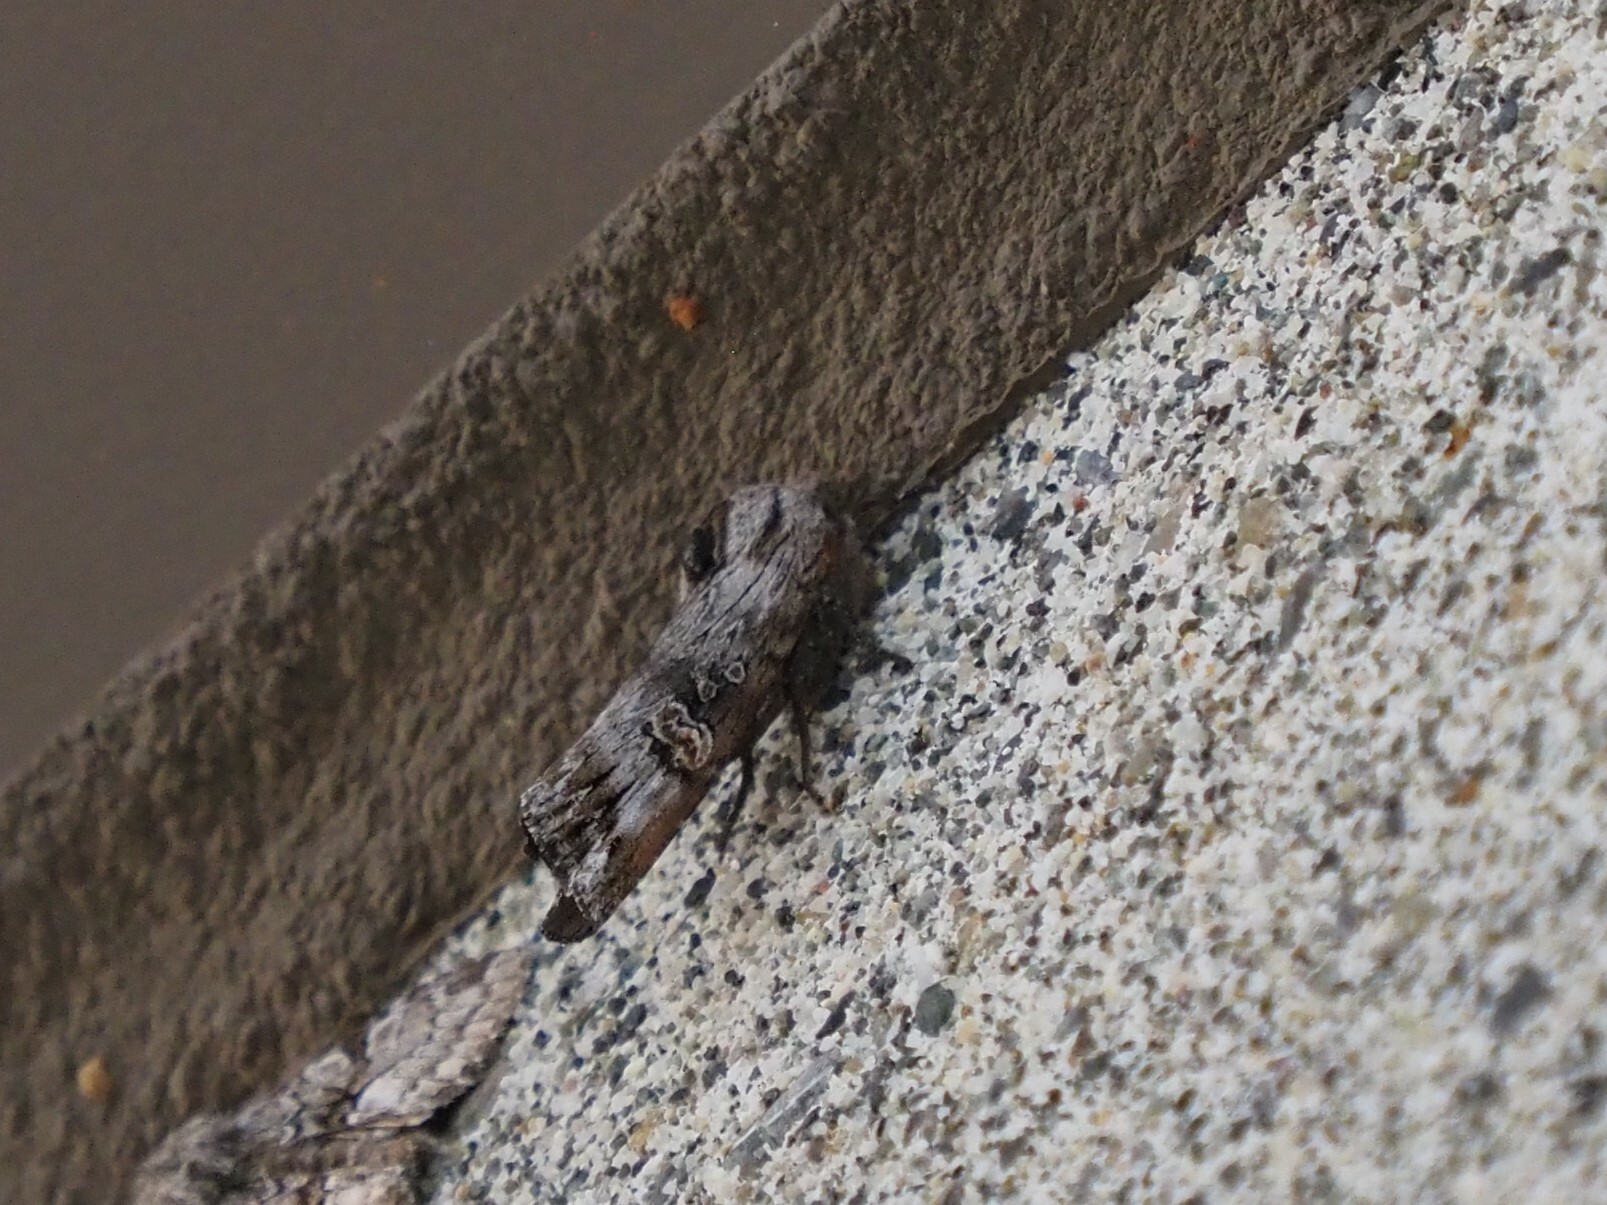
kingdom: Animalia
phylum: Arthropoda
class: Insecta
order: Lepidoptera
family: Noctuidae
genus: Xylena
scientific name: Xylena germana
